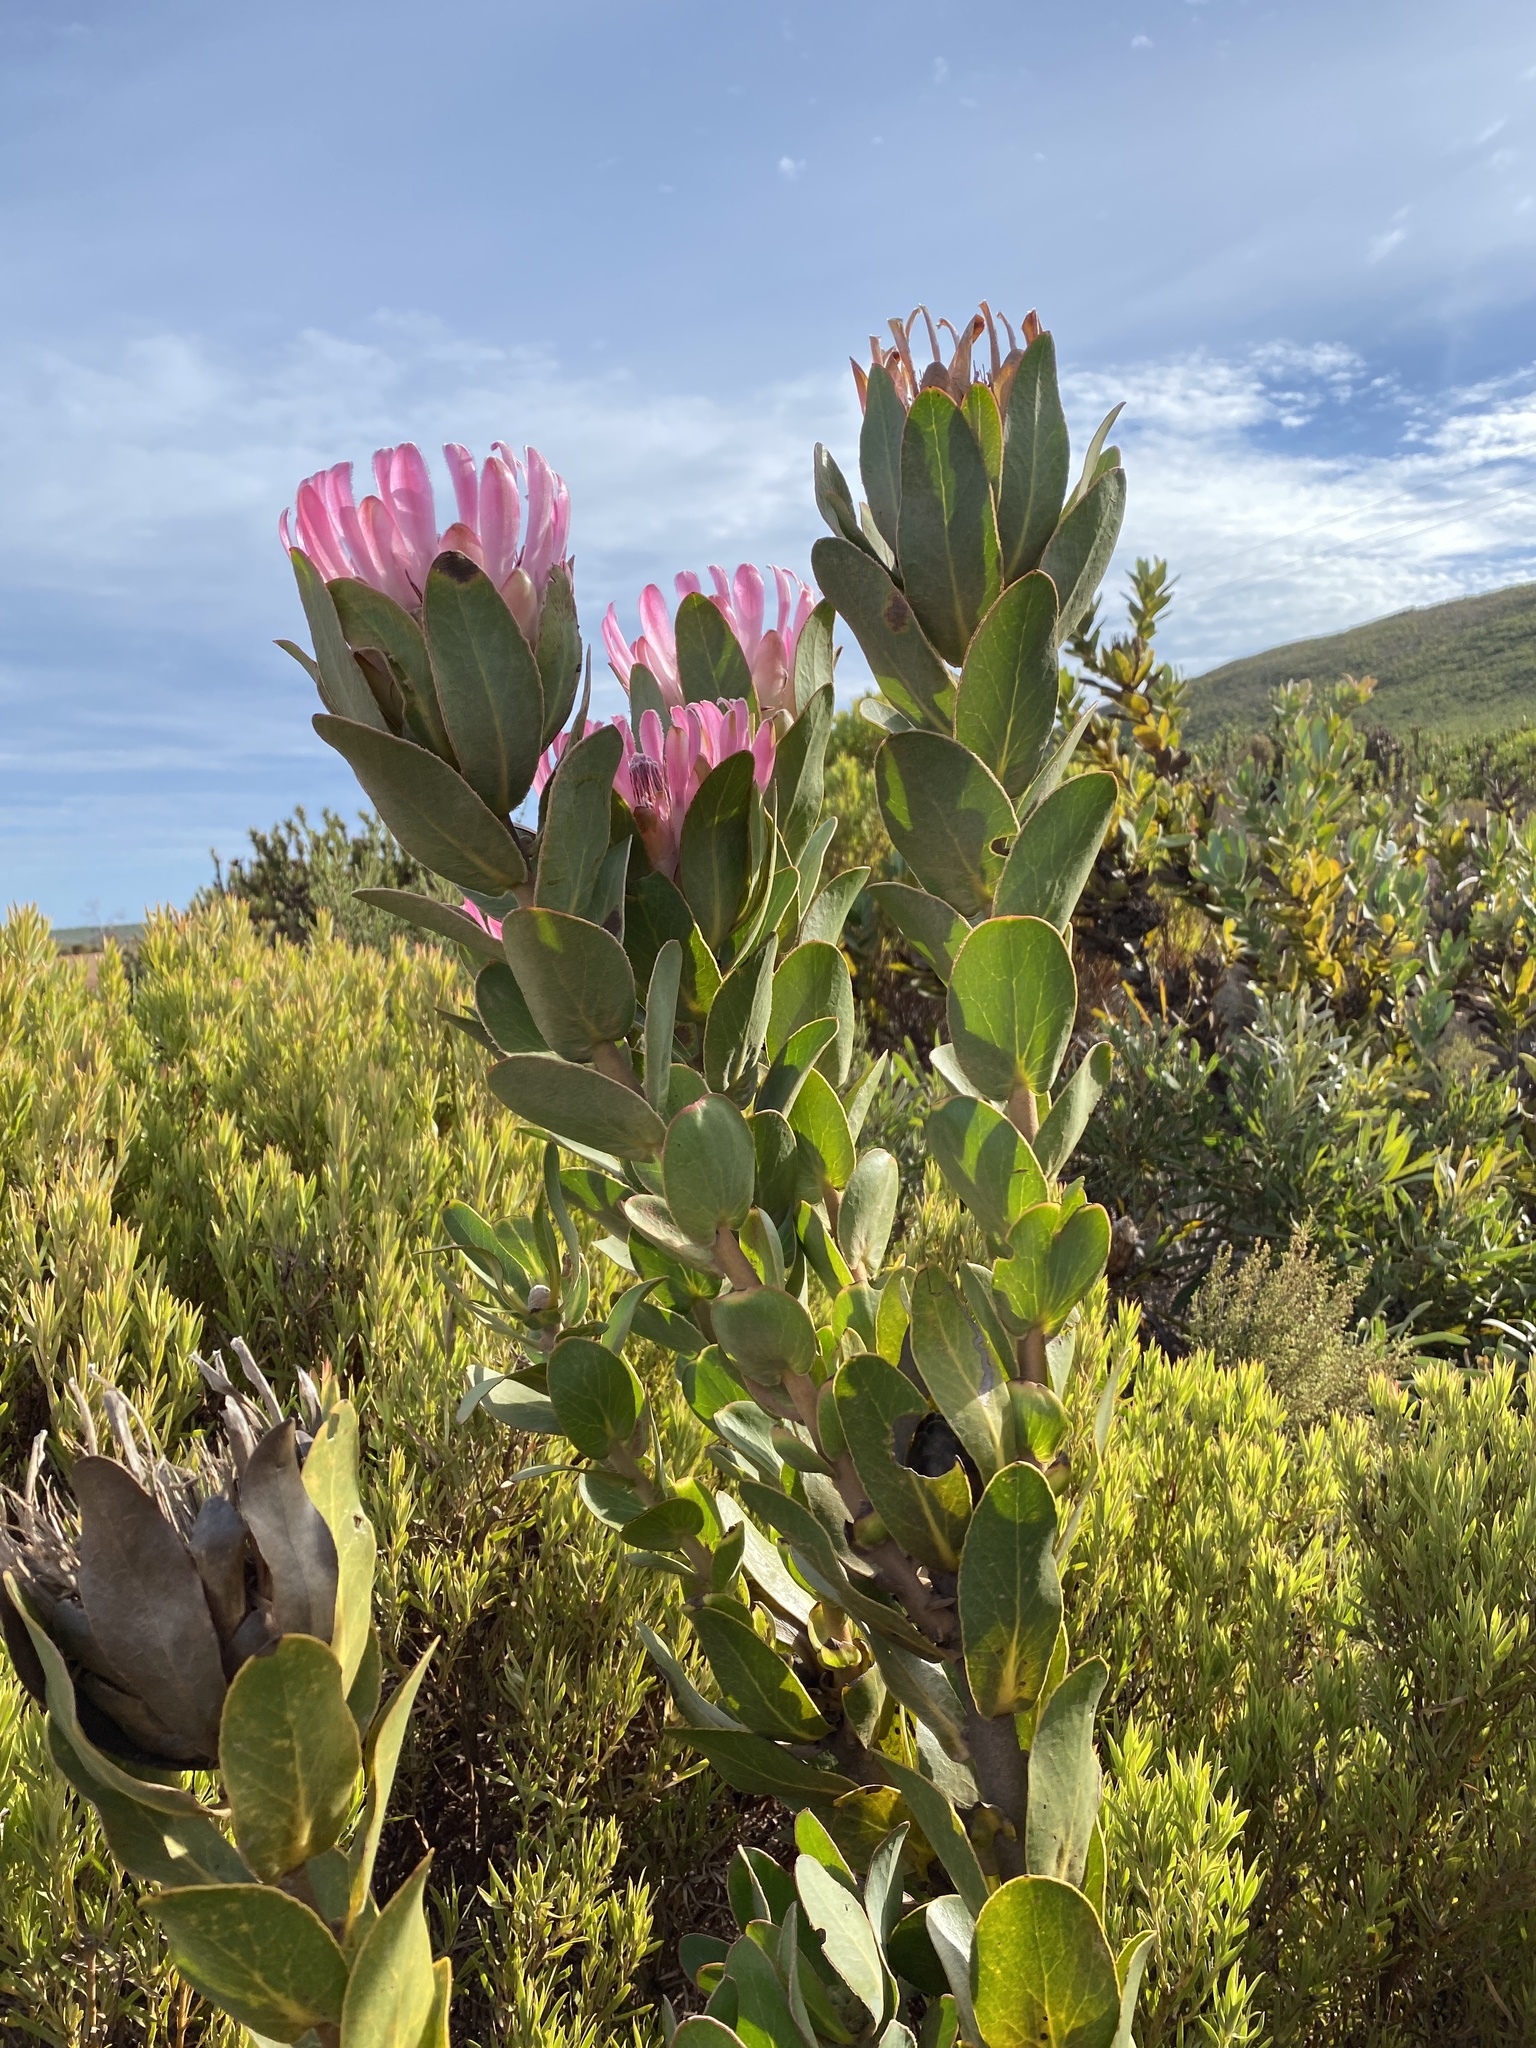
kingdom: Plantae
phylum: Tracheophyta
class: Magnoliopsida
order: Proteales
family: Proteaceae
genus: Protea
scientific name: Protea compacta
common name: Bot river protea
